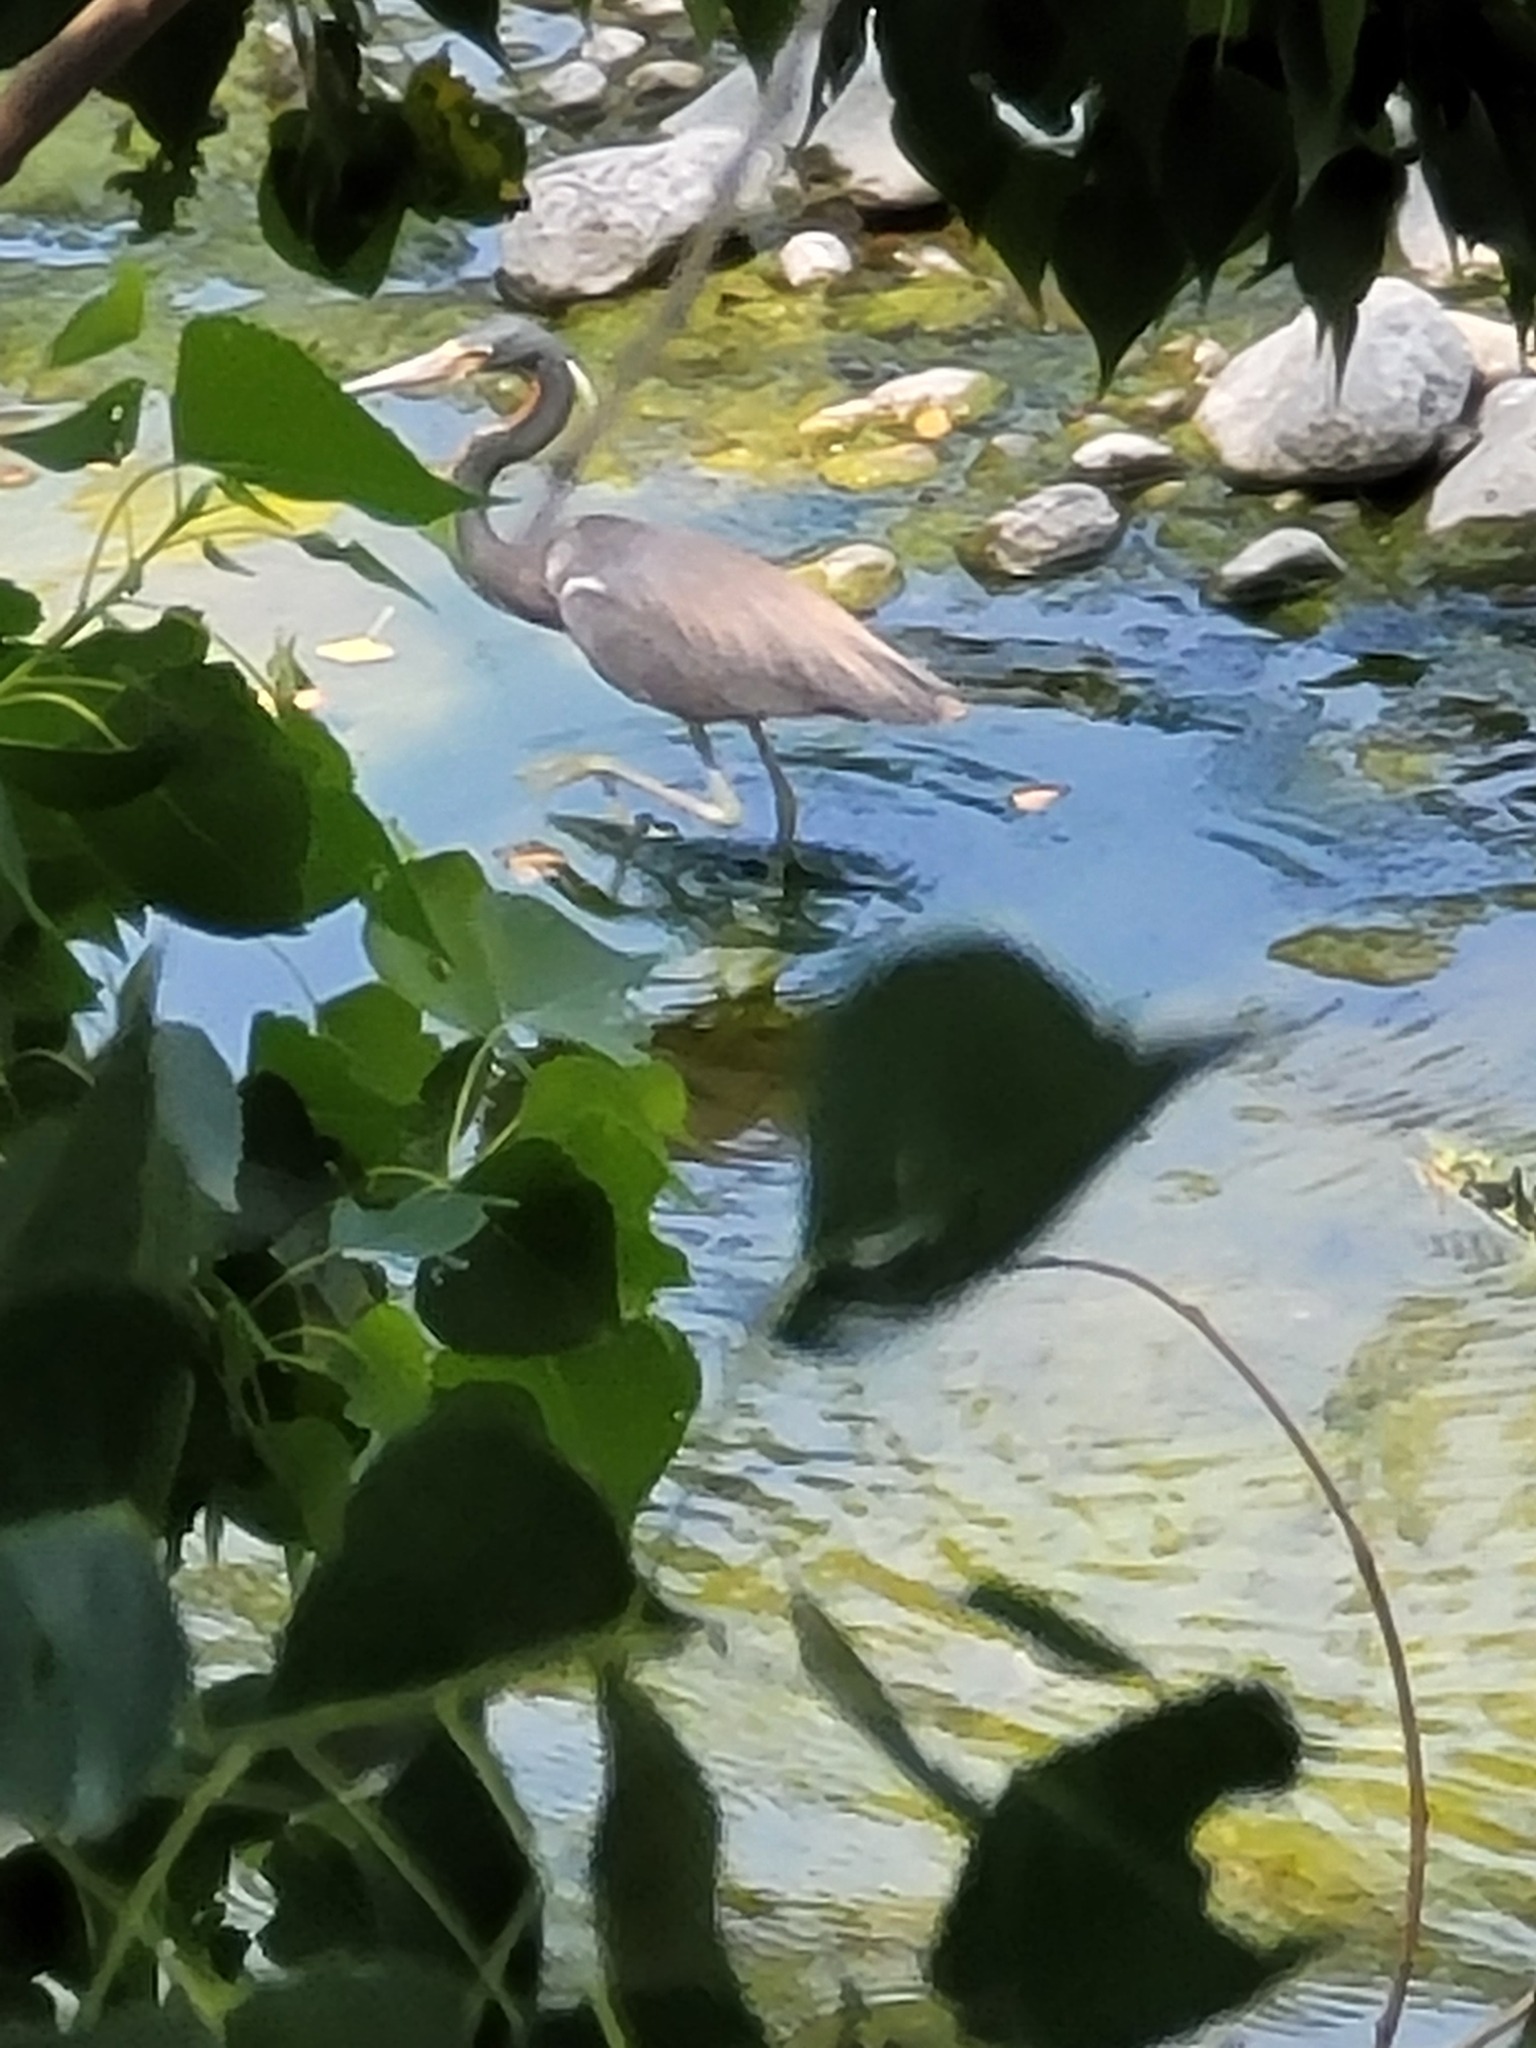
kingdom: Animalia
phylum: Chordata
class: Aves
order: Pelecaniformes
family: Ardeidae
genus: Egretta
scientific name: Egretta tricolor
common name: Tricolored heron
